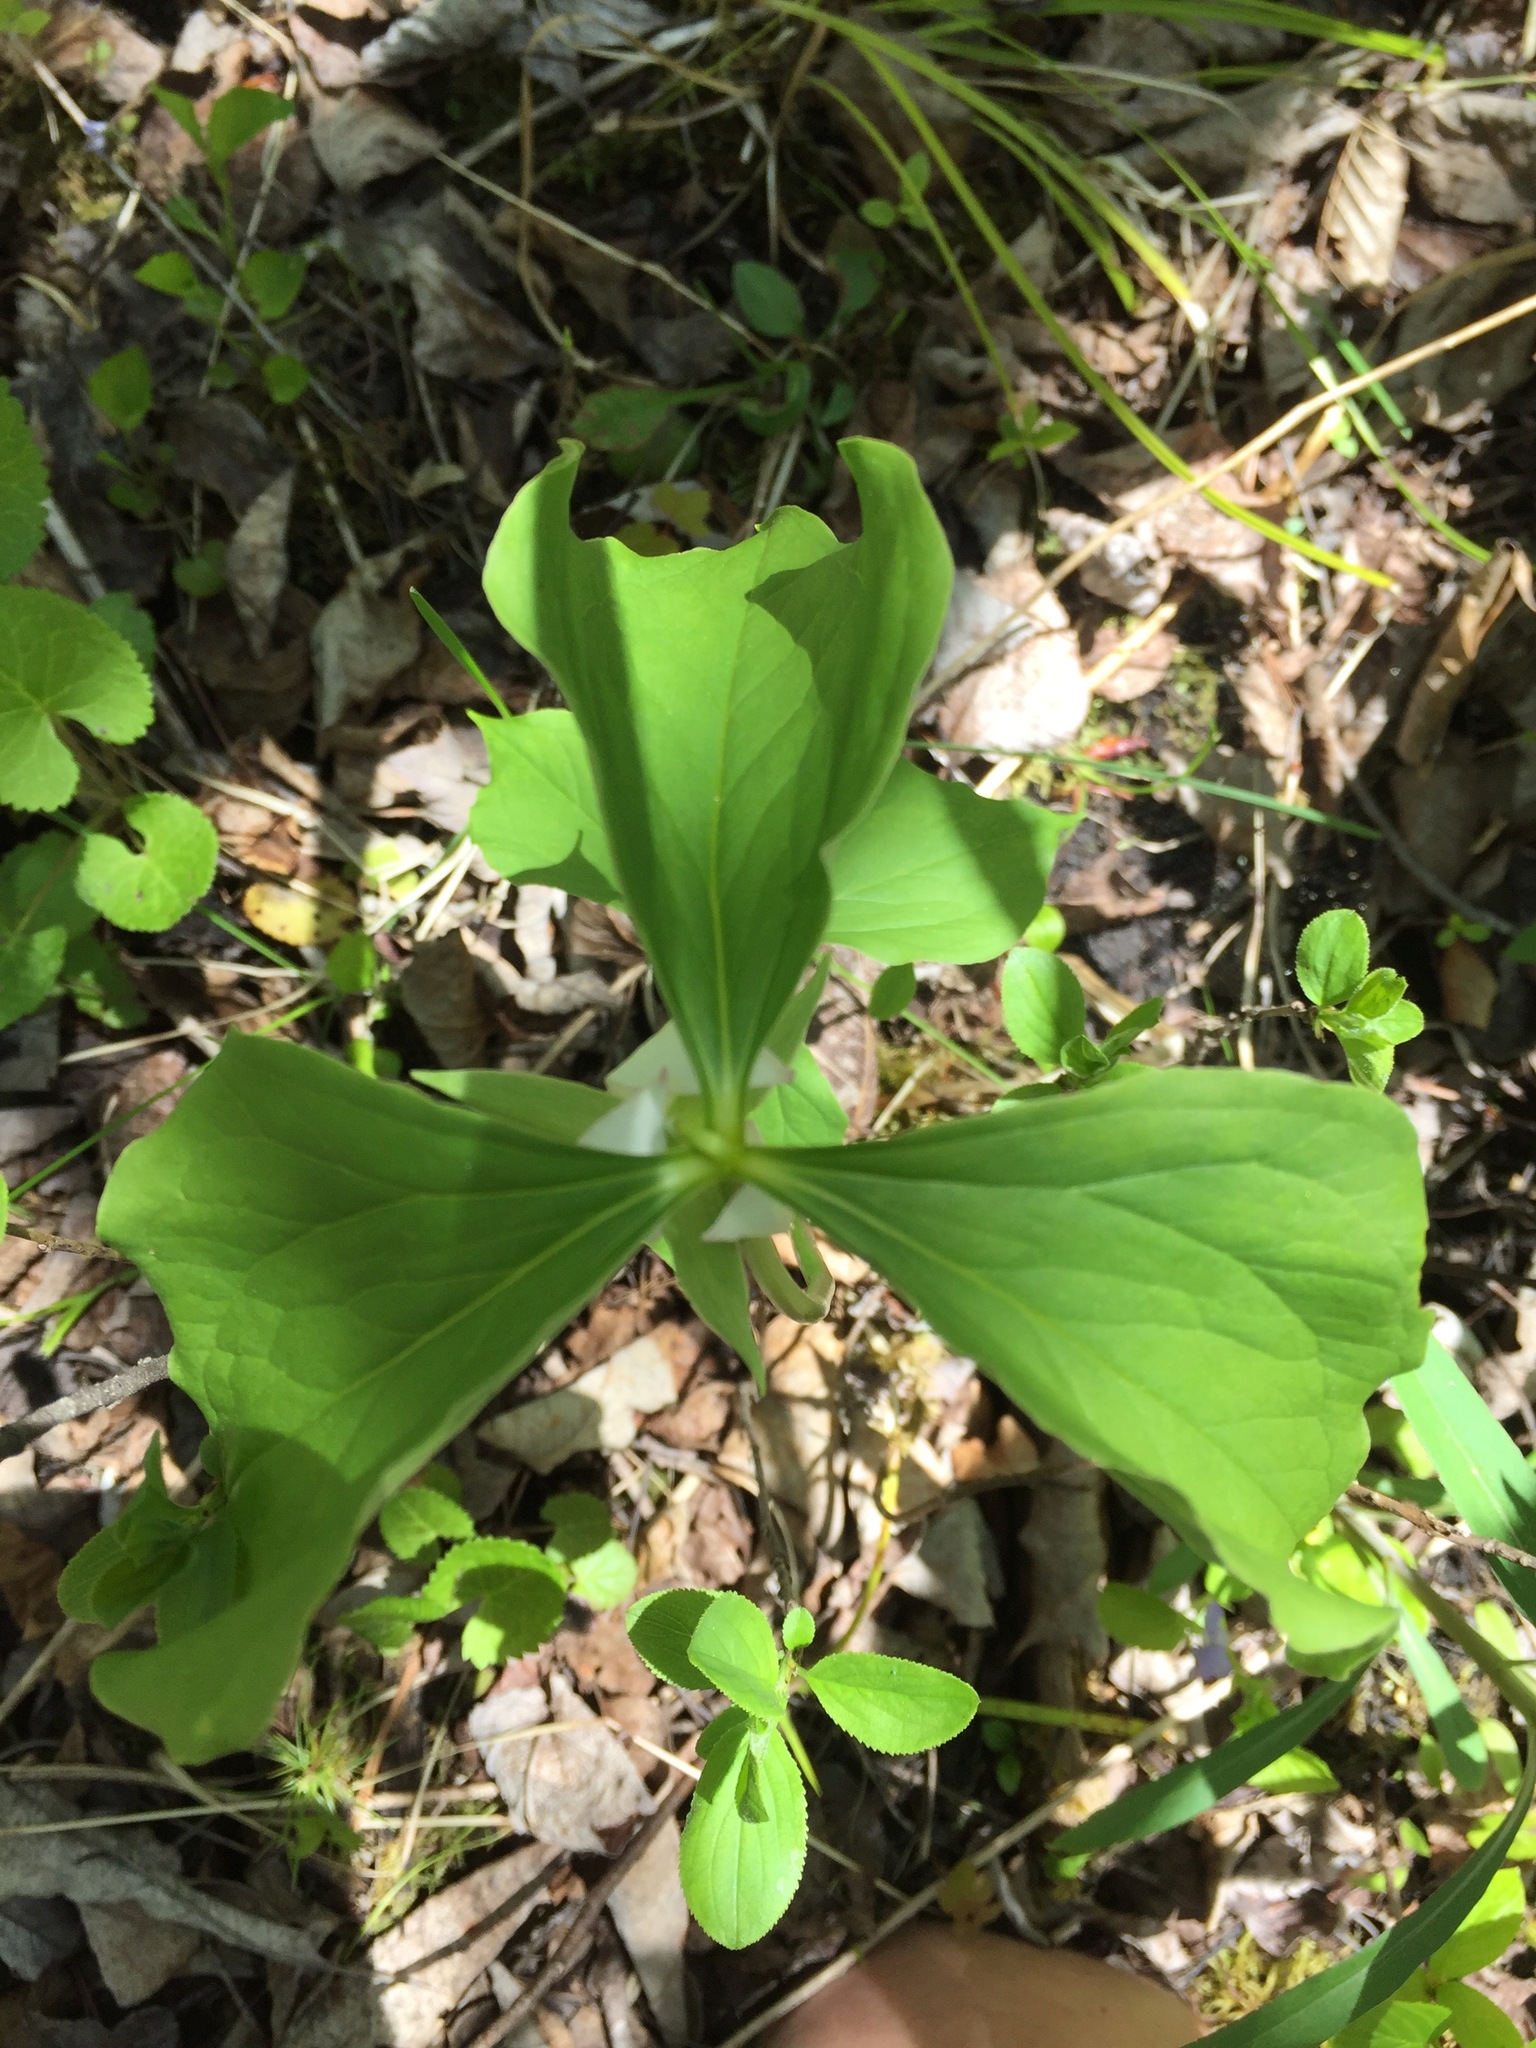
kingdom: Plantae
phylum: Tracheophyta
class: Liliopsida
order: Liliales
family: Melanthiaceae
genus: Trillium
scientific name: Trillium cernuum
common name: Nodding trillium
